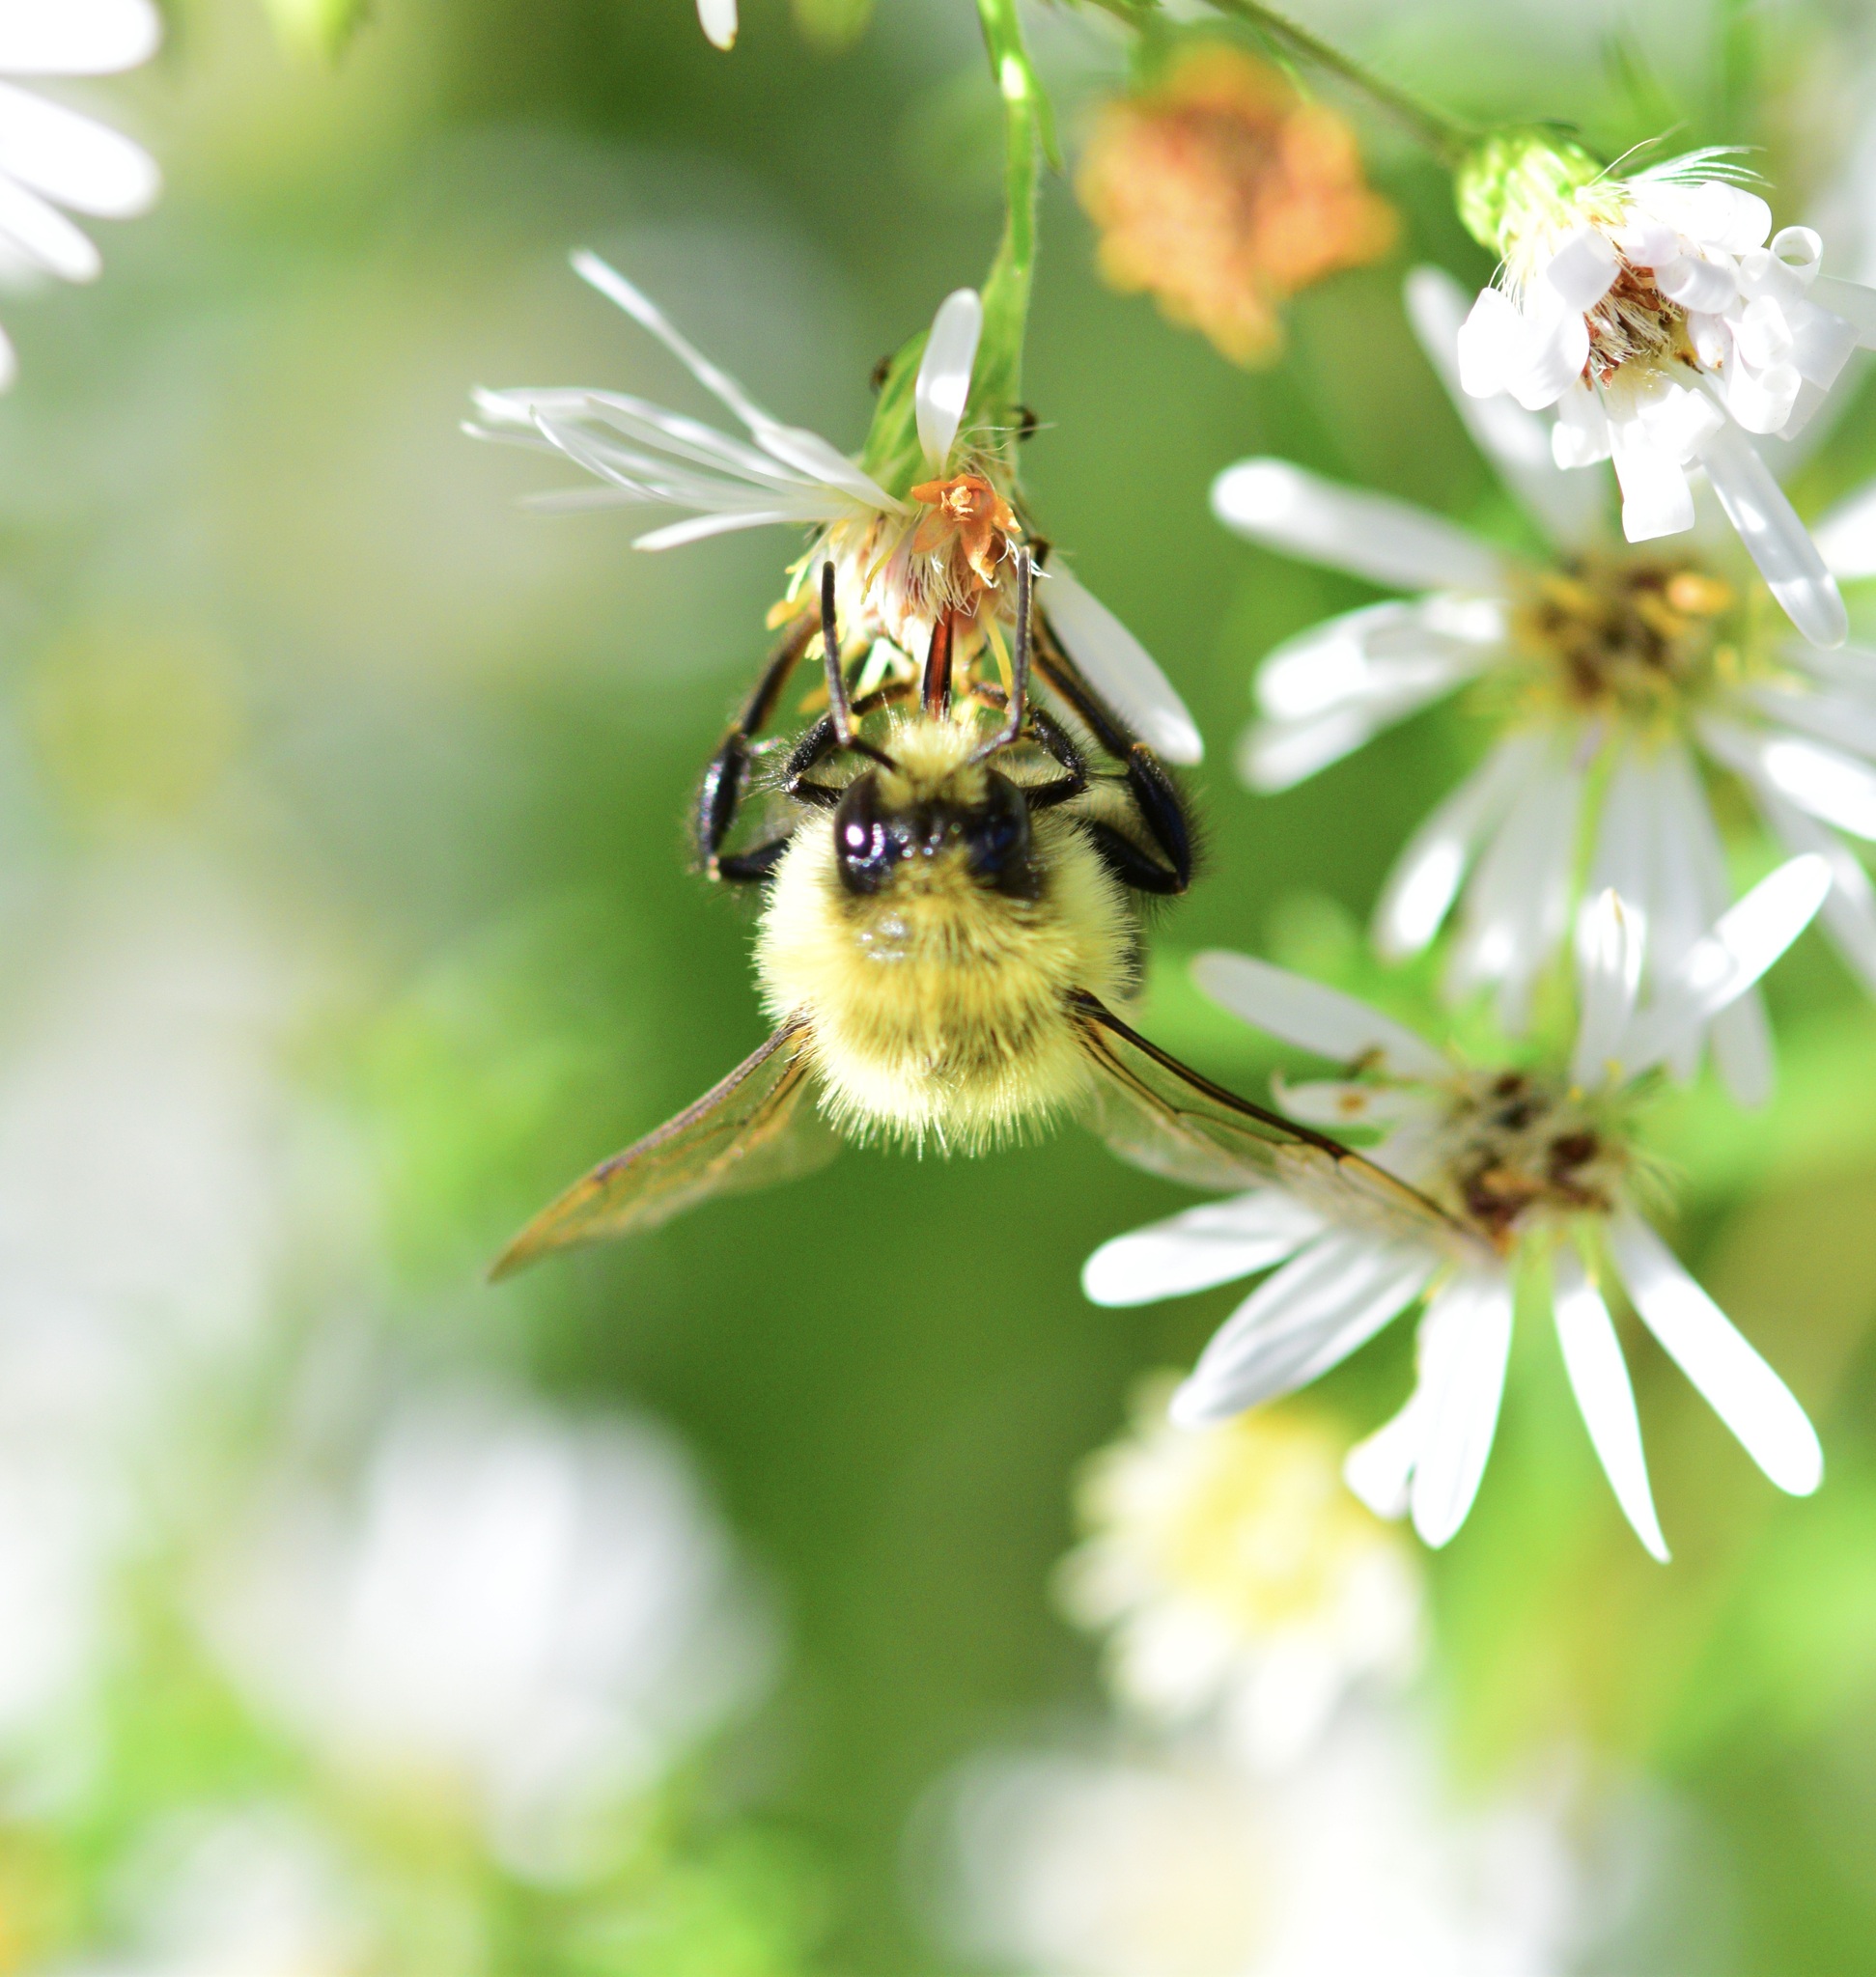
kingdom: Animalia
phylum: Arthropoda
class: Insecta
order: Hymenoptera
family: Apidae
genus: Bombus
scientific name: Bombus impatiens
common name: Common eastern bumble bee
